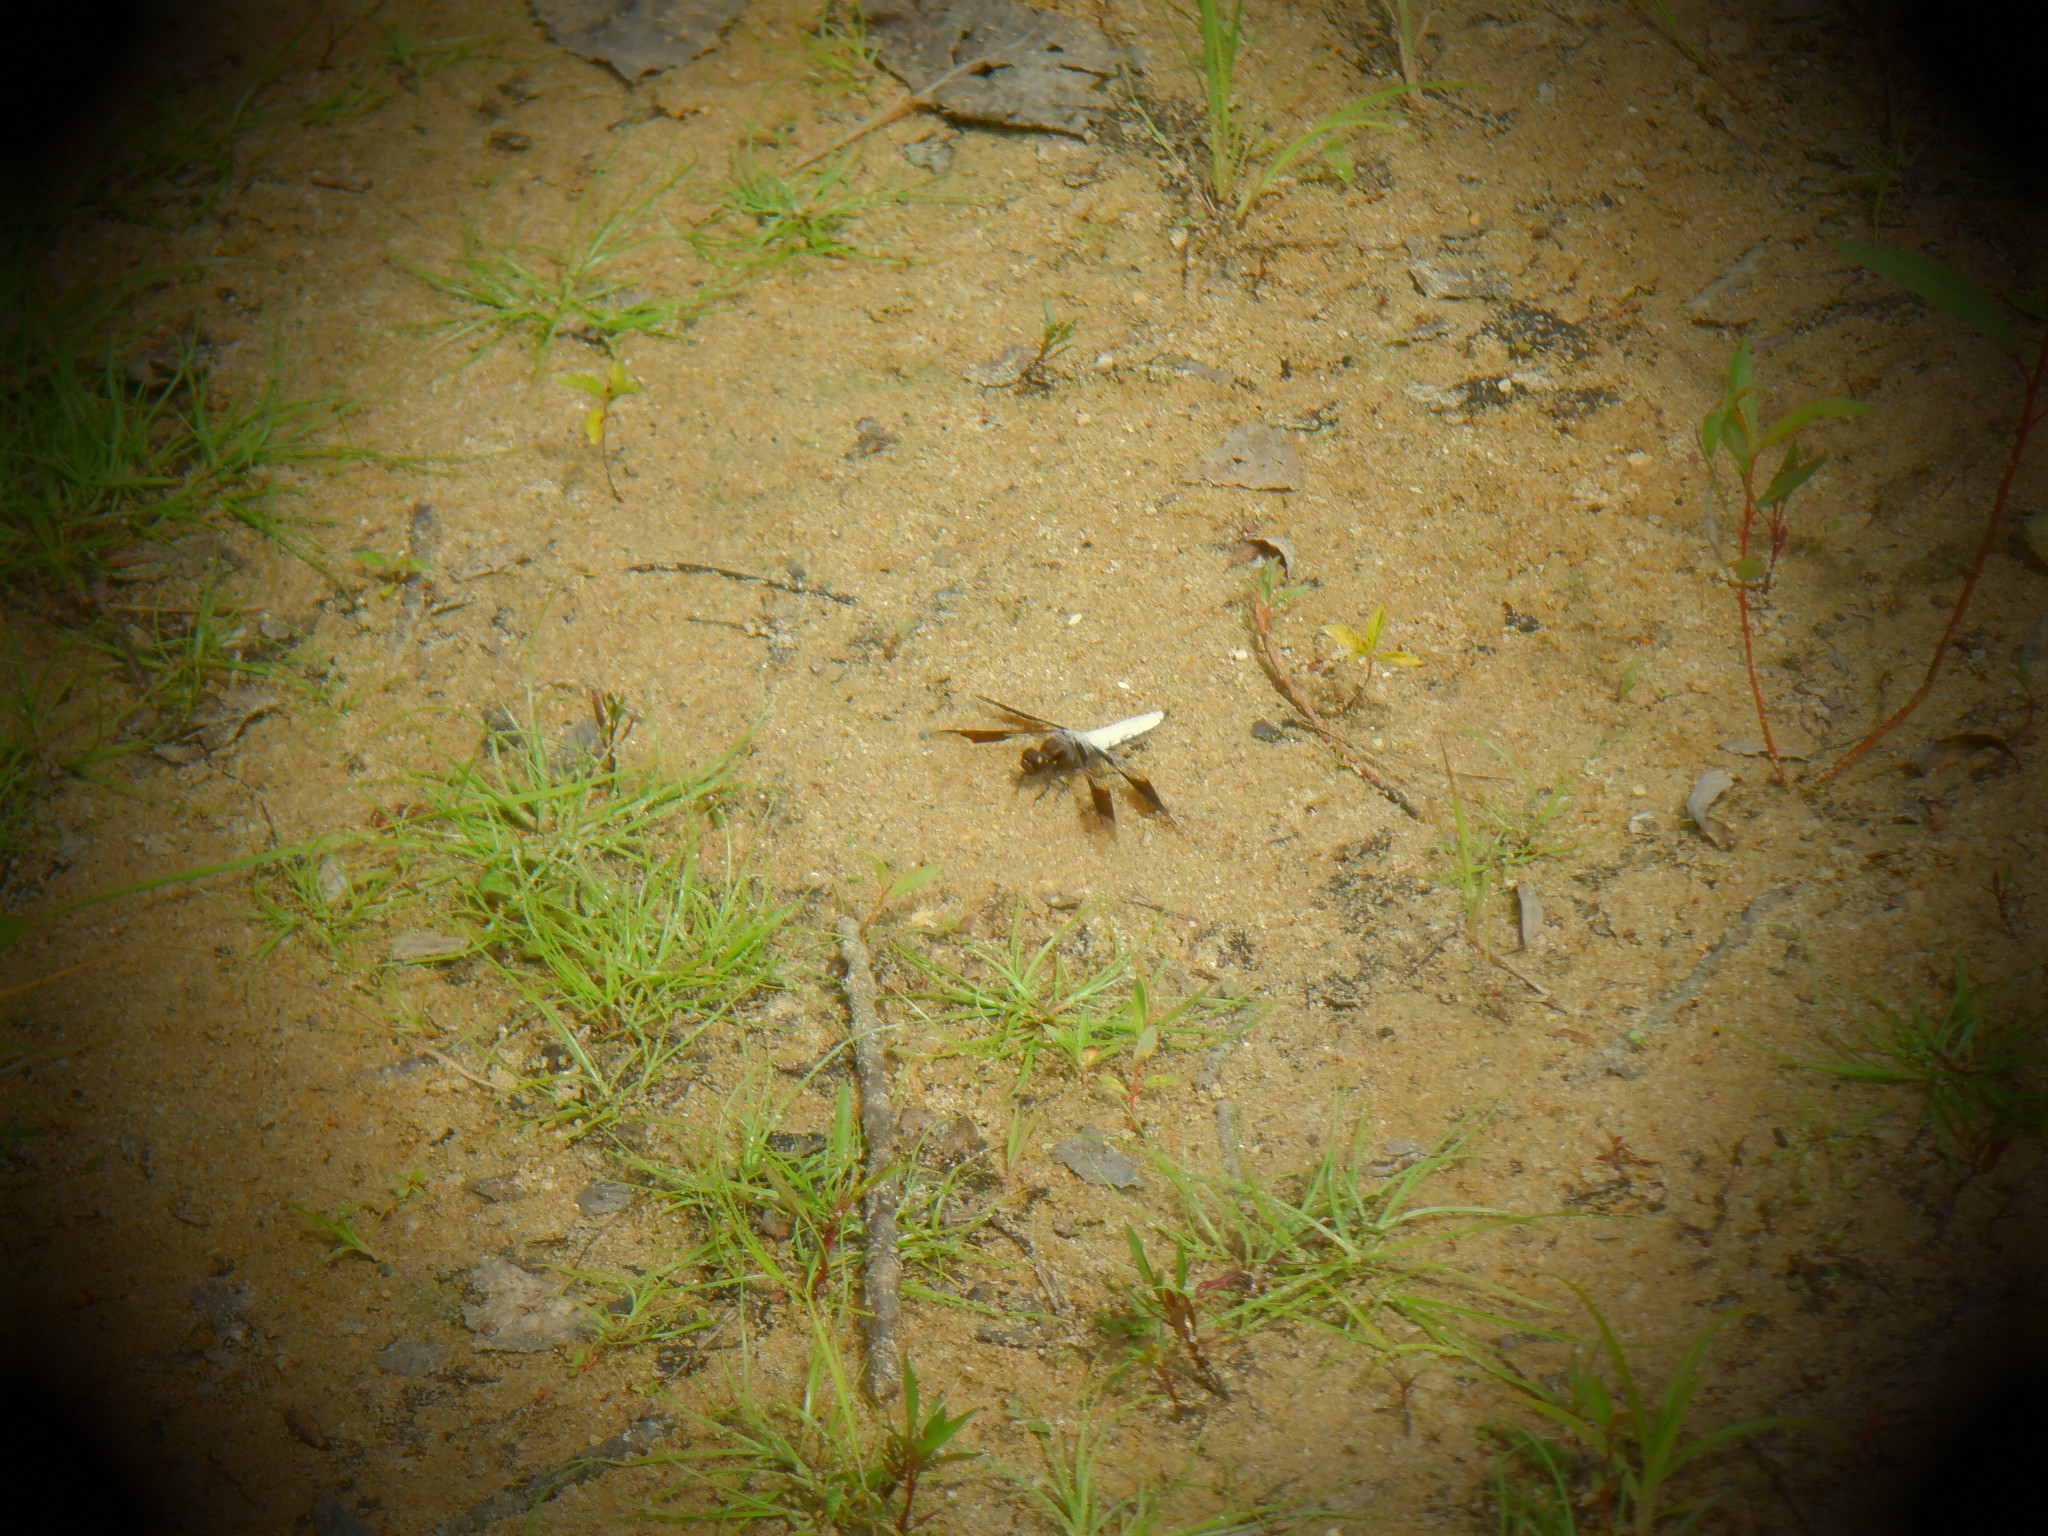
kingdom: Animalia
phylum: Arthropoda
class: Insecta
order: Odonata
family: Libellulidae
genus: Plathemis
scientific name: Plathemis lydia
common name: Common whitetail
